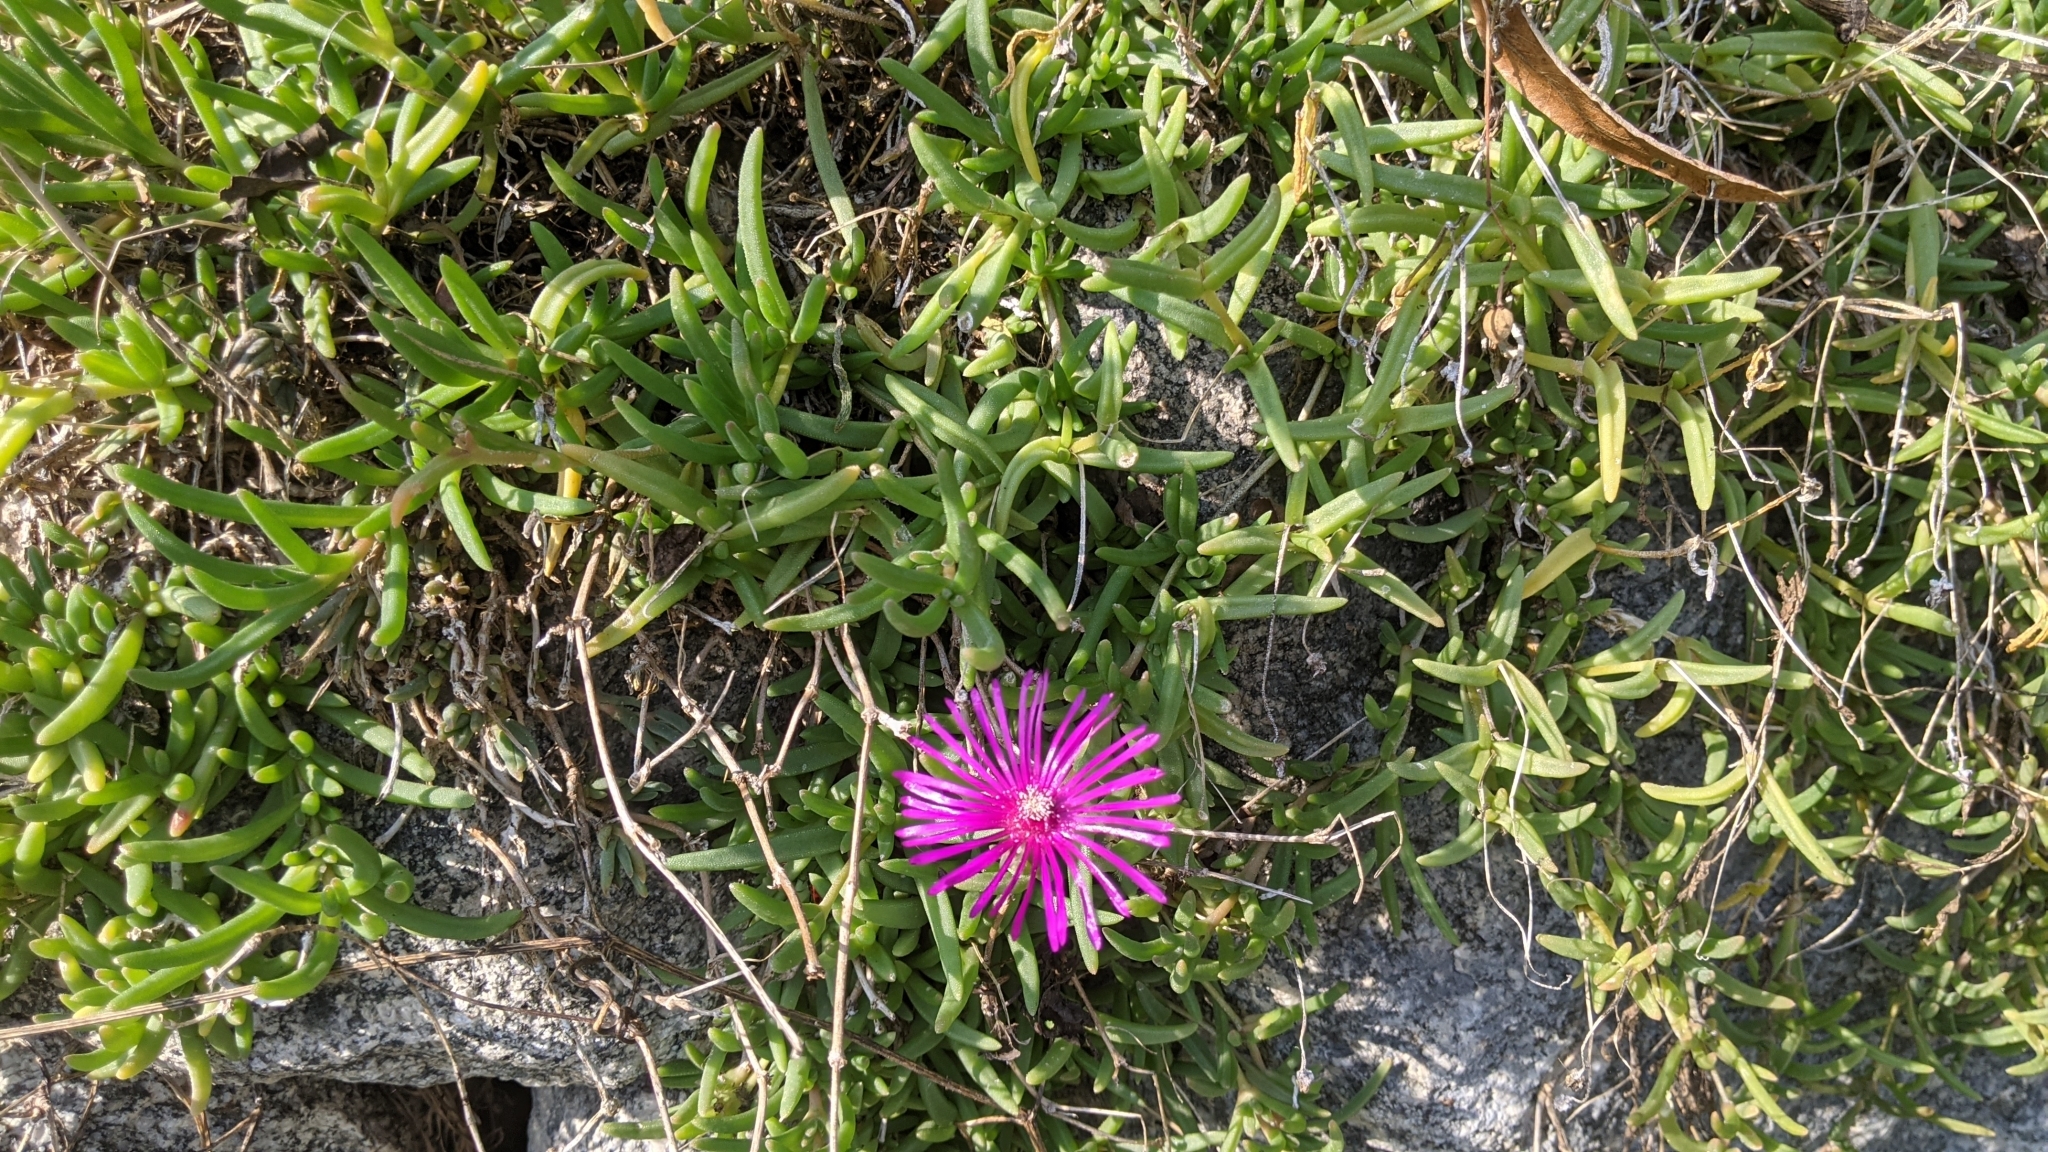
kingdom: Plantae
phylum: Tracheophyta
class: Magnoliopsida
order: Caryophyllales
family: Aizoaceae
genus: Delosperma
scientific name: Delosperma cooperi
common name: Hardy iceplant
